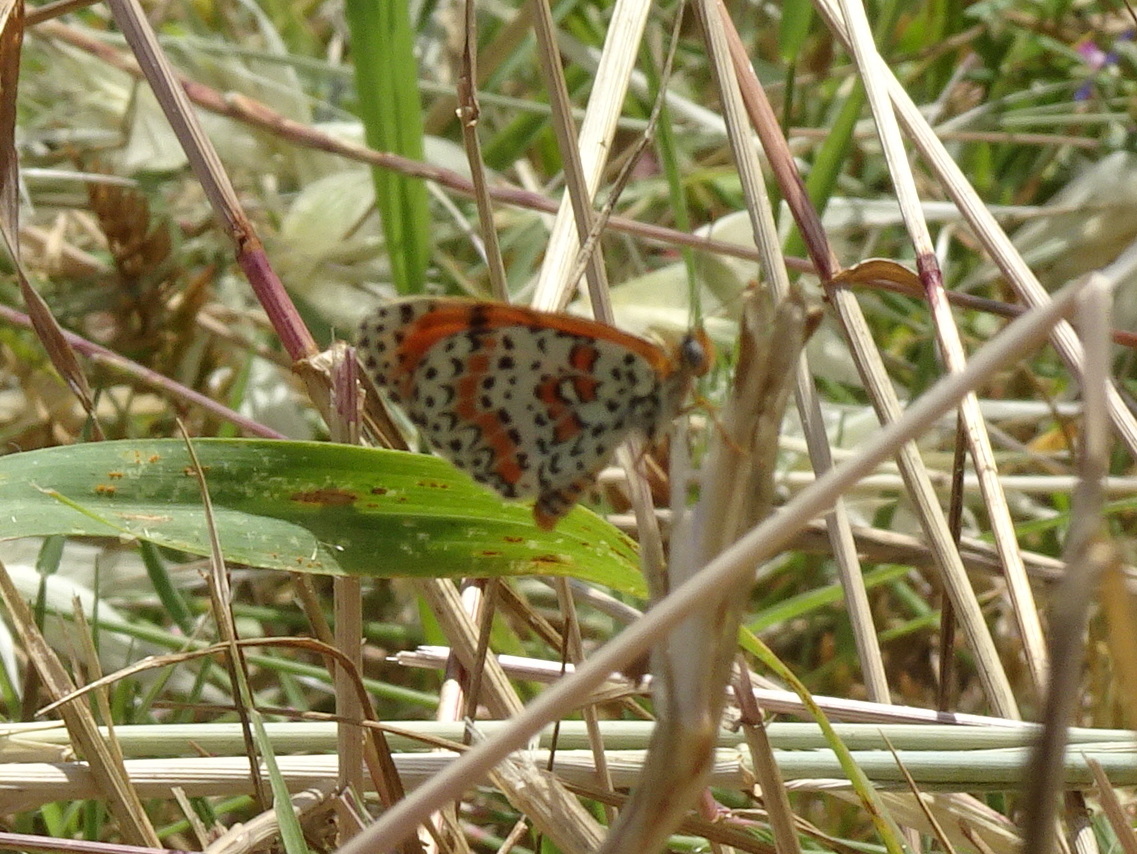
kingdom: Animalia
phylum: Arthropoda
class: Insecta
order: Lepidoptera
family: Nymphalidae
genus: Melitaea
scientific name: Melitaea didyma
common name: Spotted fritillary
